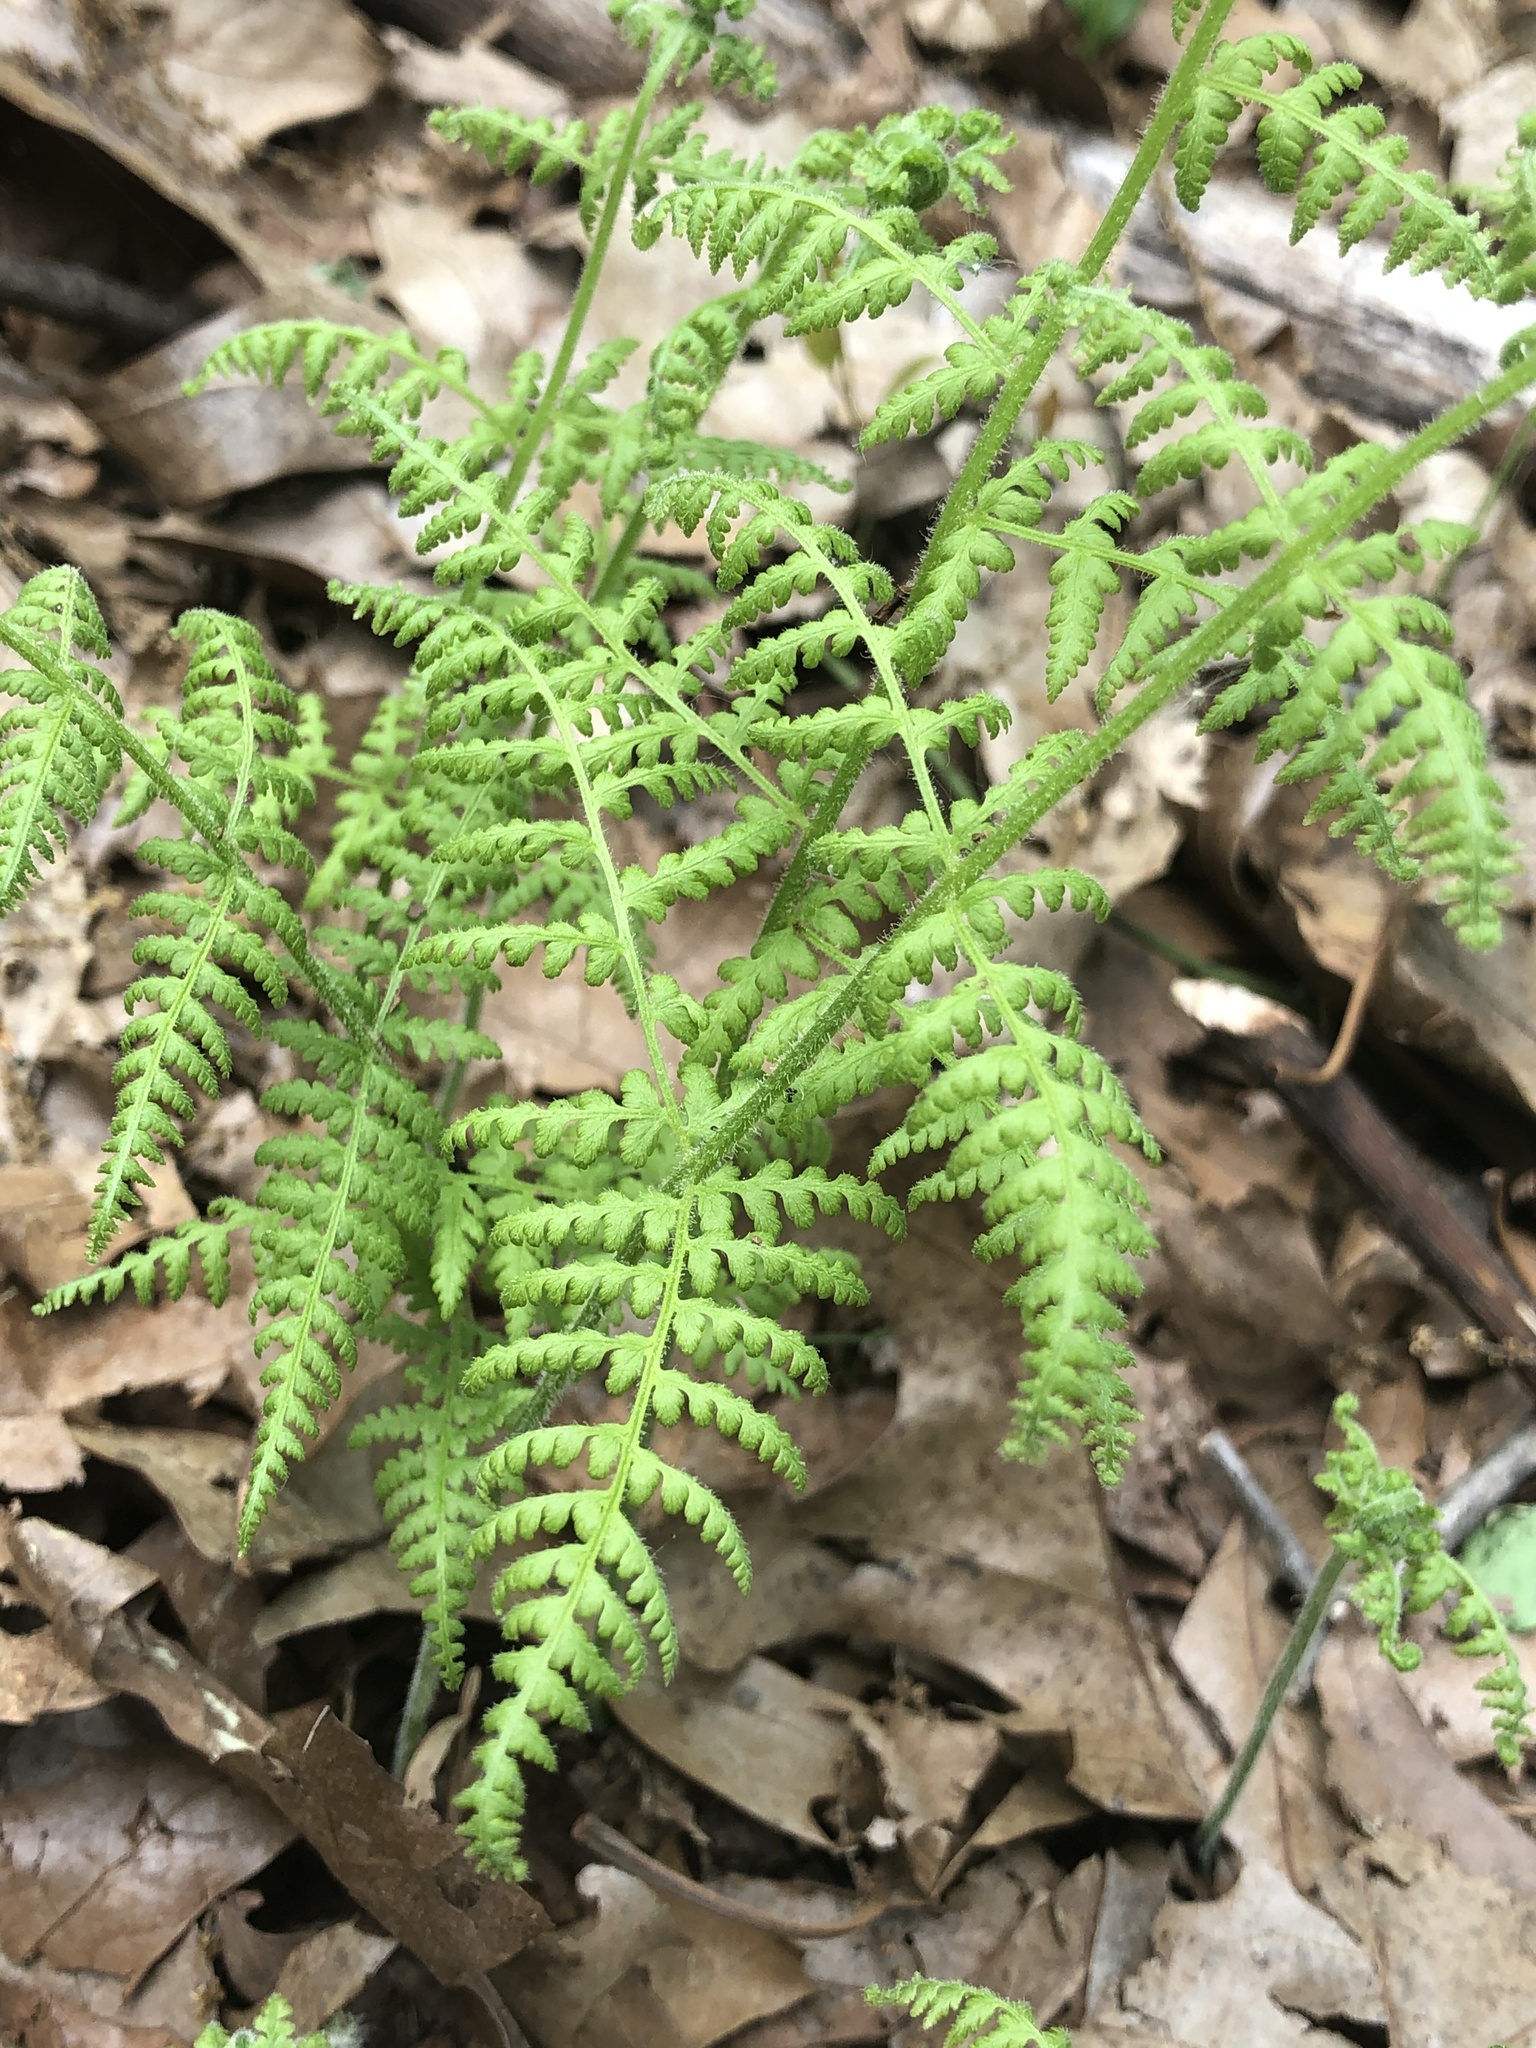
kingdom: Plantae
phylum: Tracheophyta
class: Polypodiopsida
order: Polypodiales
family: Dennstaedtiaceae
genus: Sitobolium
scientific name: Sitobolium punctilobum
